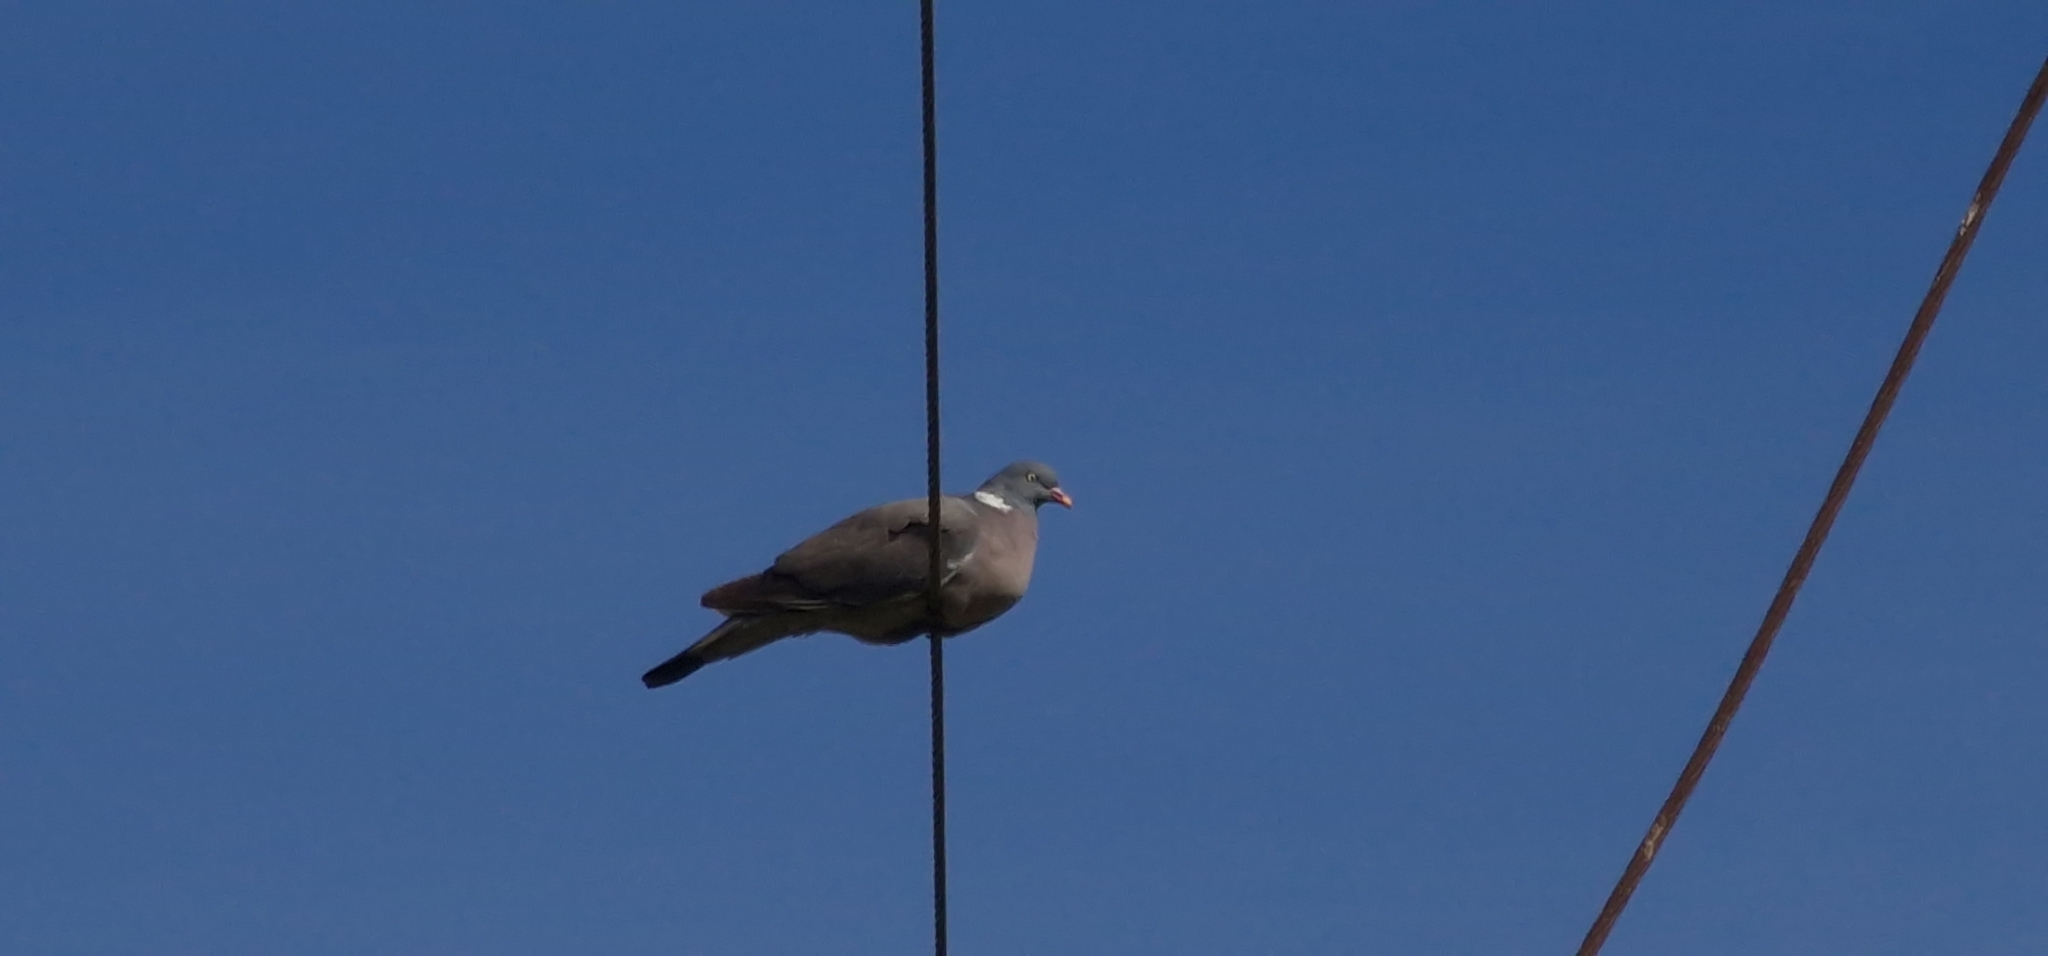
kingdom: Animalia
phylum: Chordata
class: Aves
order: Columbiformes
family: Columbidae
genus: Columba
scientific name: Columba palumbus
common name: Common wood pigeon
